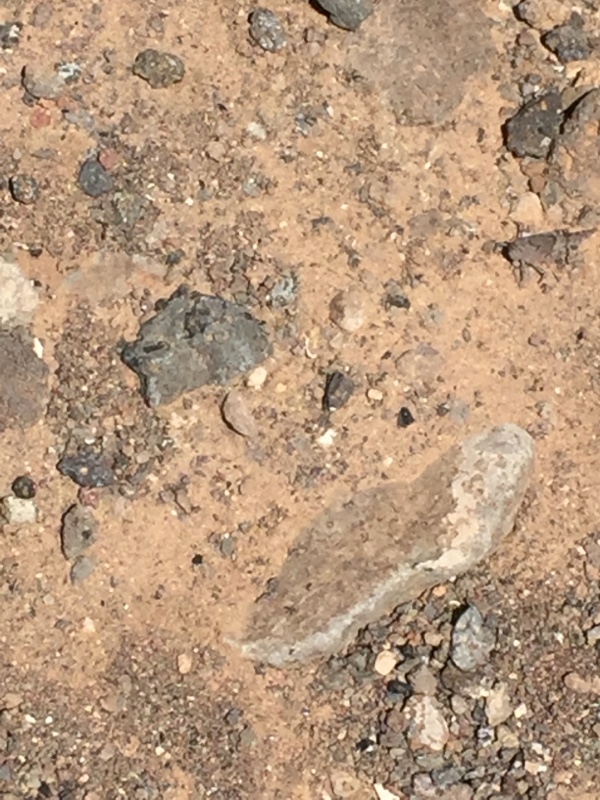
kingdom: Animalia
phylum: Arthropoda
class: Insecta
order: Orthoptera
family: Acrididae
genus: Sphingonotus
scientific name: Sphingonotus fuerteventurae
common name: Fuerteventura sand grasshopper
